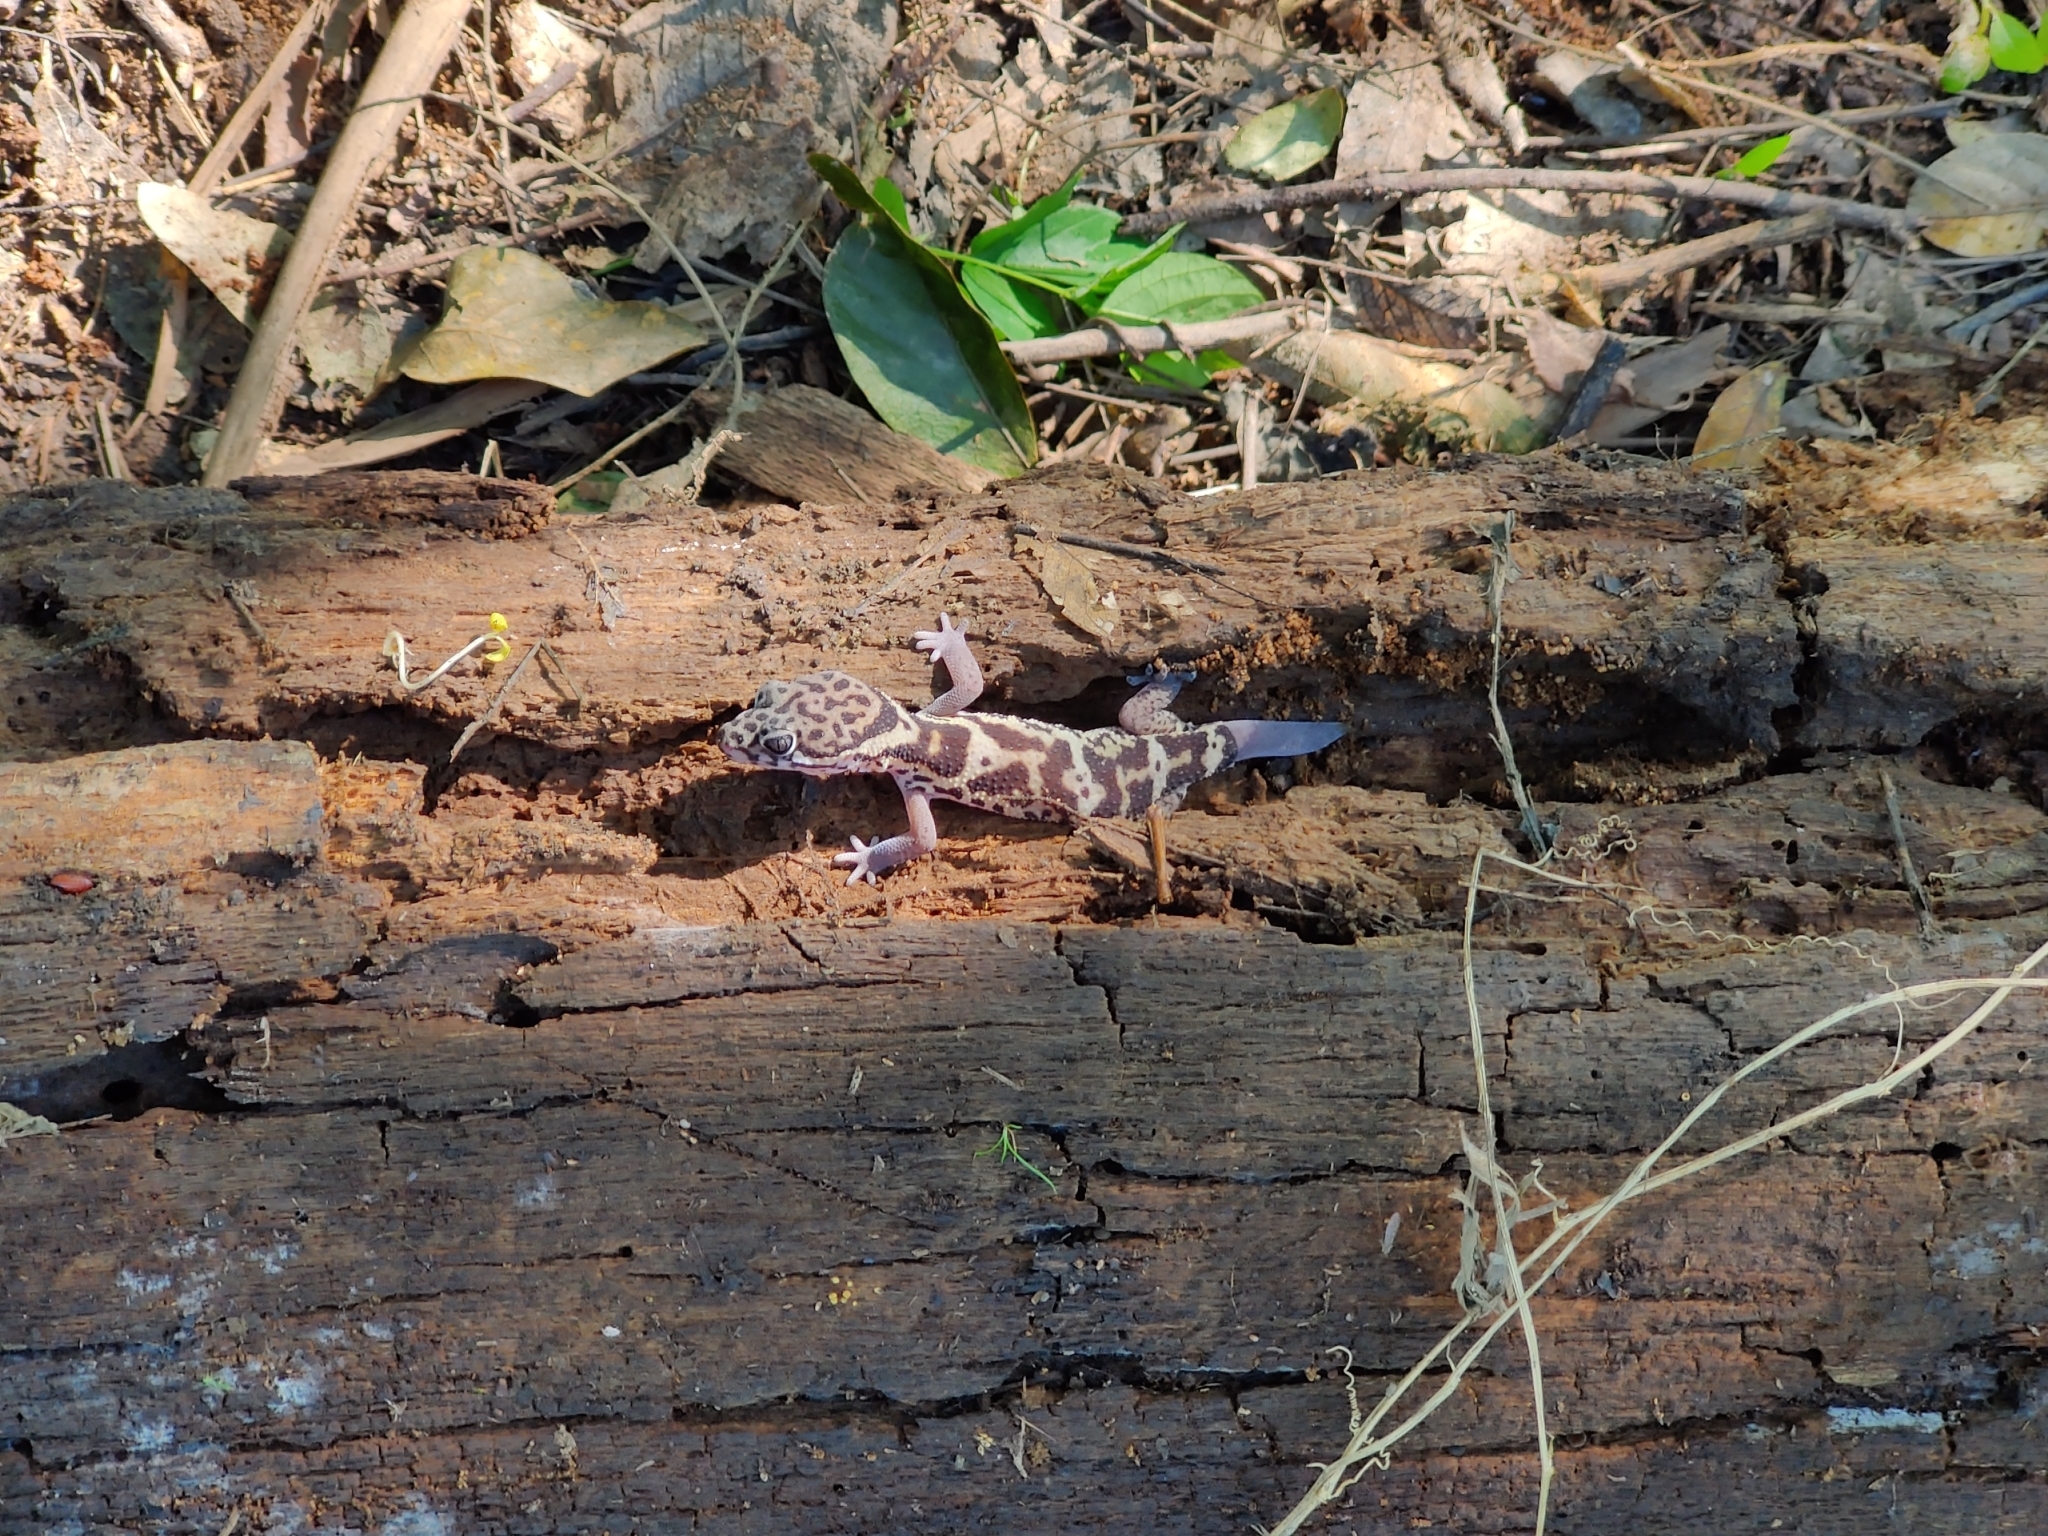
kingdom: Animalia
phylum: Chordata
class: Squamata
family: Eublepharidae
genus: Coleonyx
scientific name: Coleonyx mitratus
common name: Central american banded gecko
